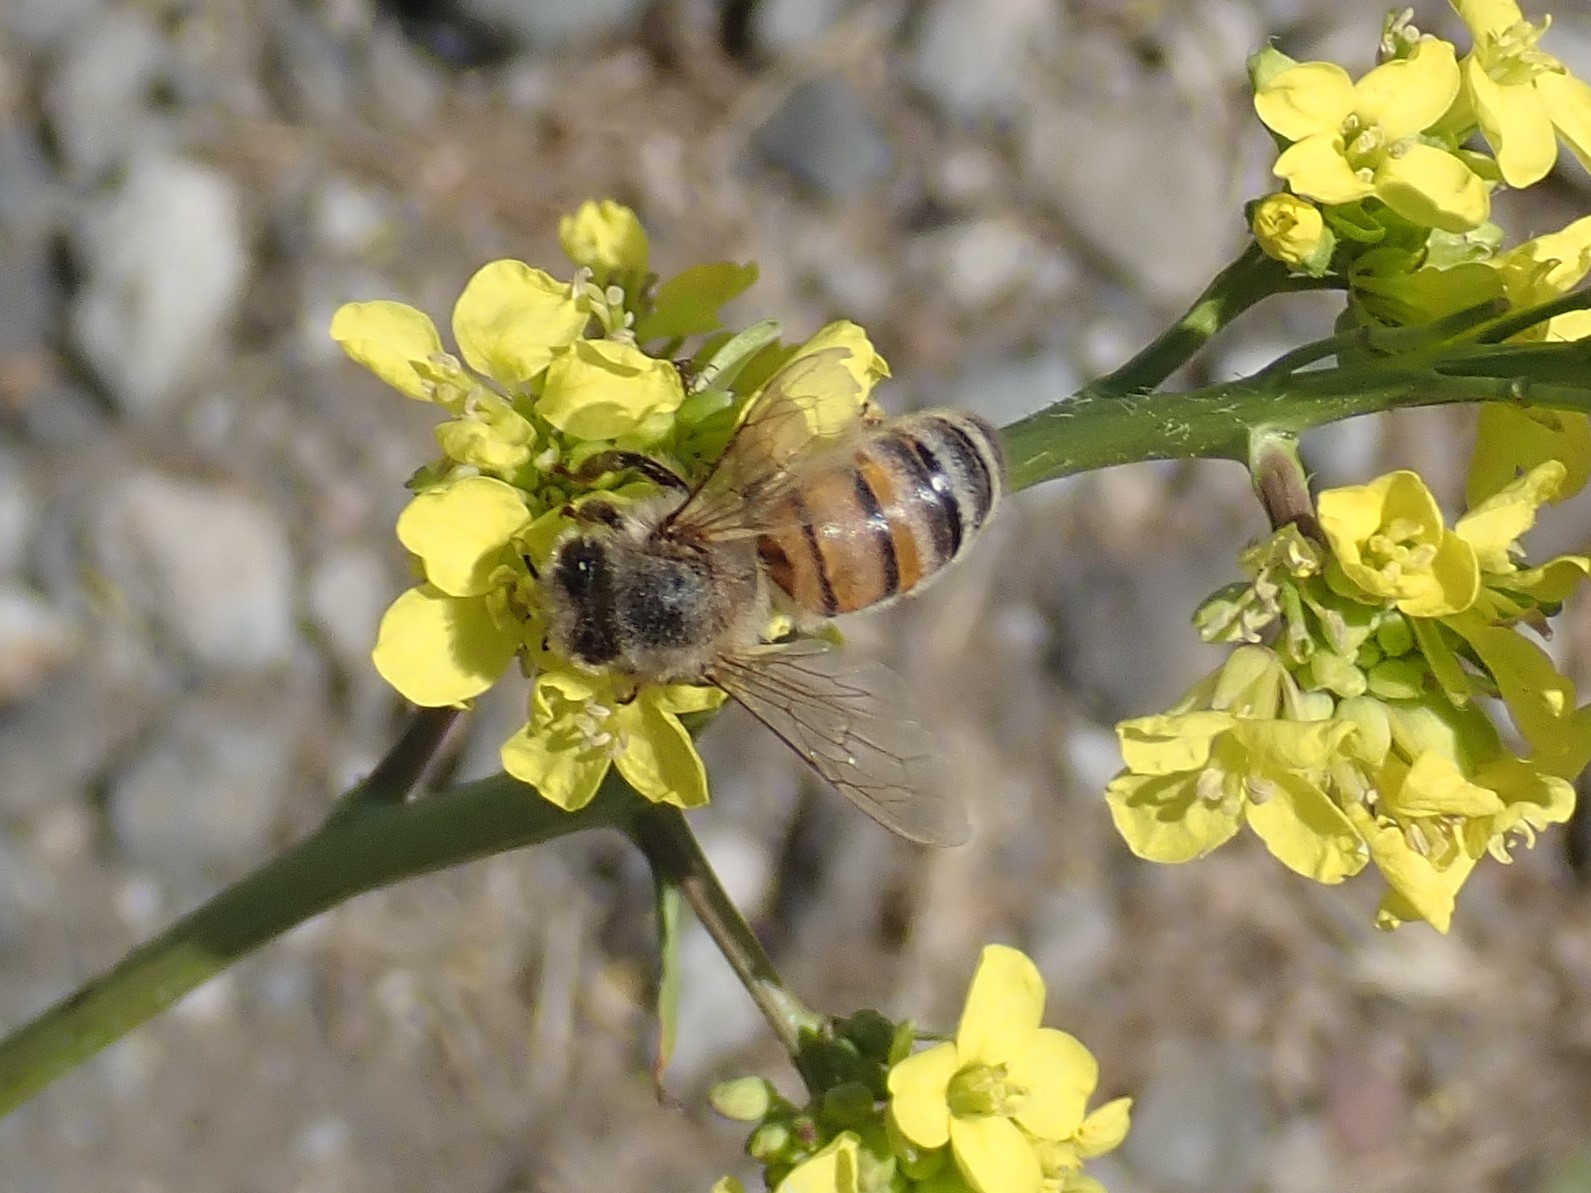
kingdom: Animalia
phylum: Arthropoda
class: Insecta
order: Hymenoptera
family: Apidae
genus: Apis
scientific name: Apis mellifera
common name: Honey bee
